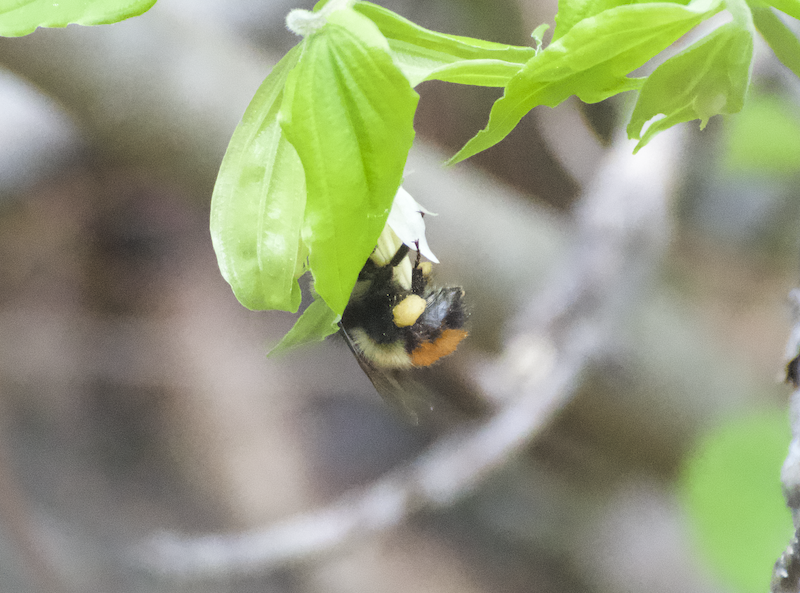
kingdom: Animalia
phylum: Arthropoda
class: Insecta
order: Hymenoptera
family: Apidae
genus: Bombus
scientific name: Bombus flavifrons
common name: Yellow head bumble bee
